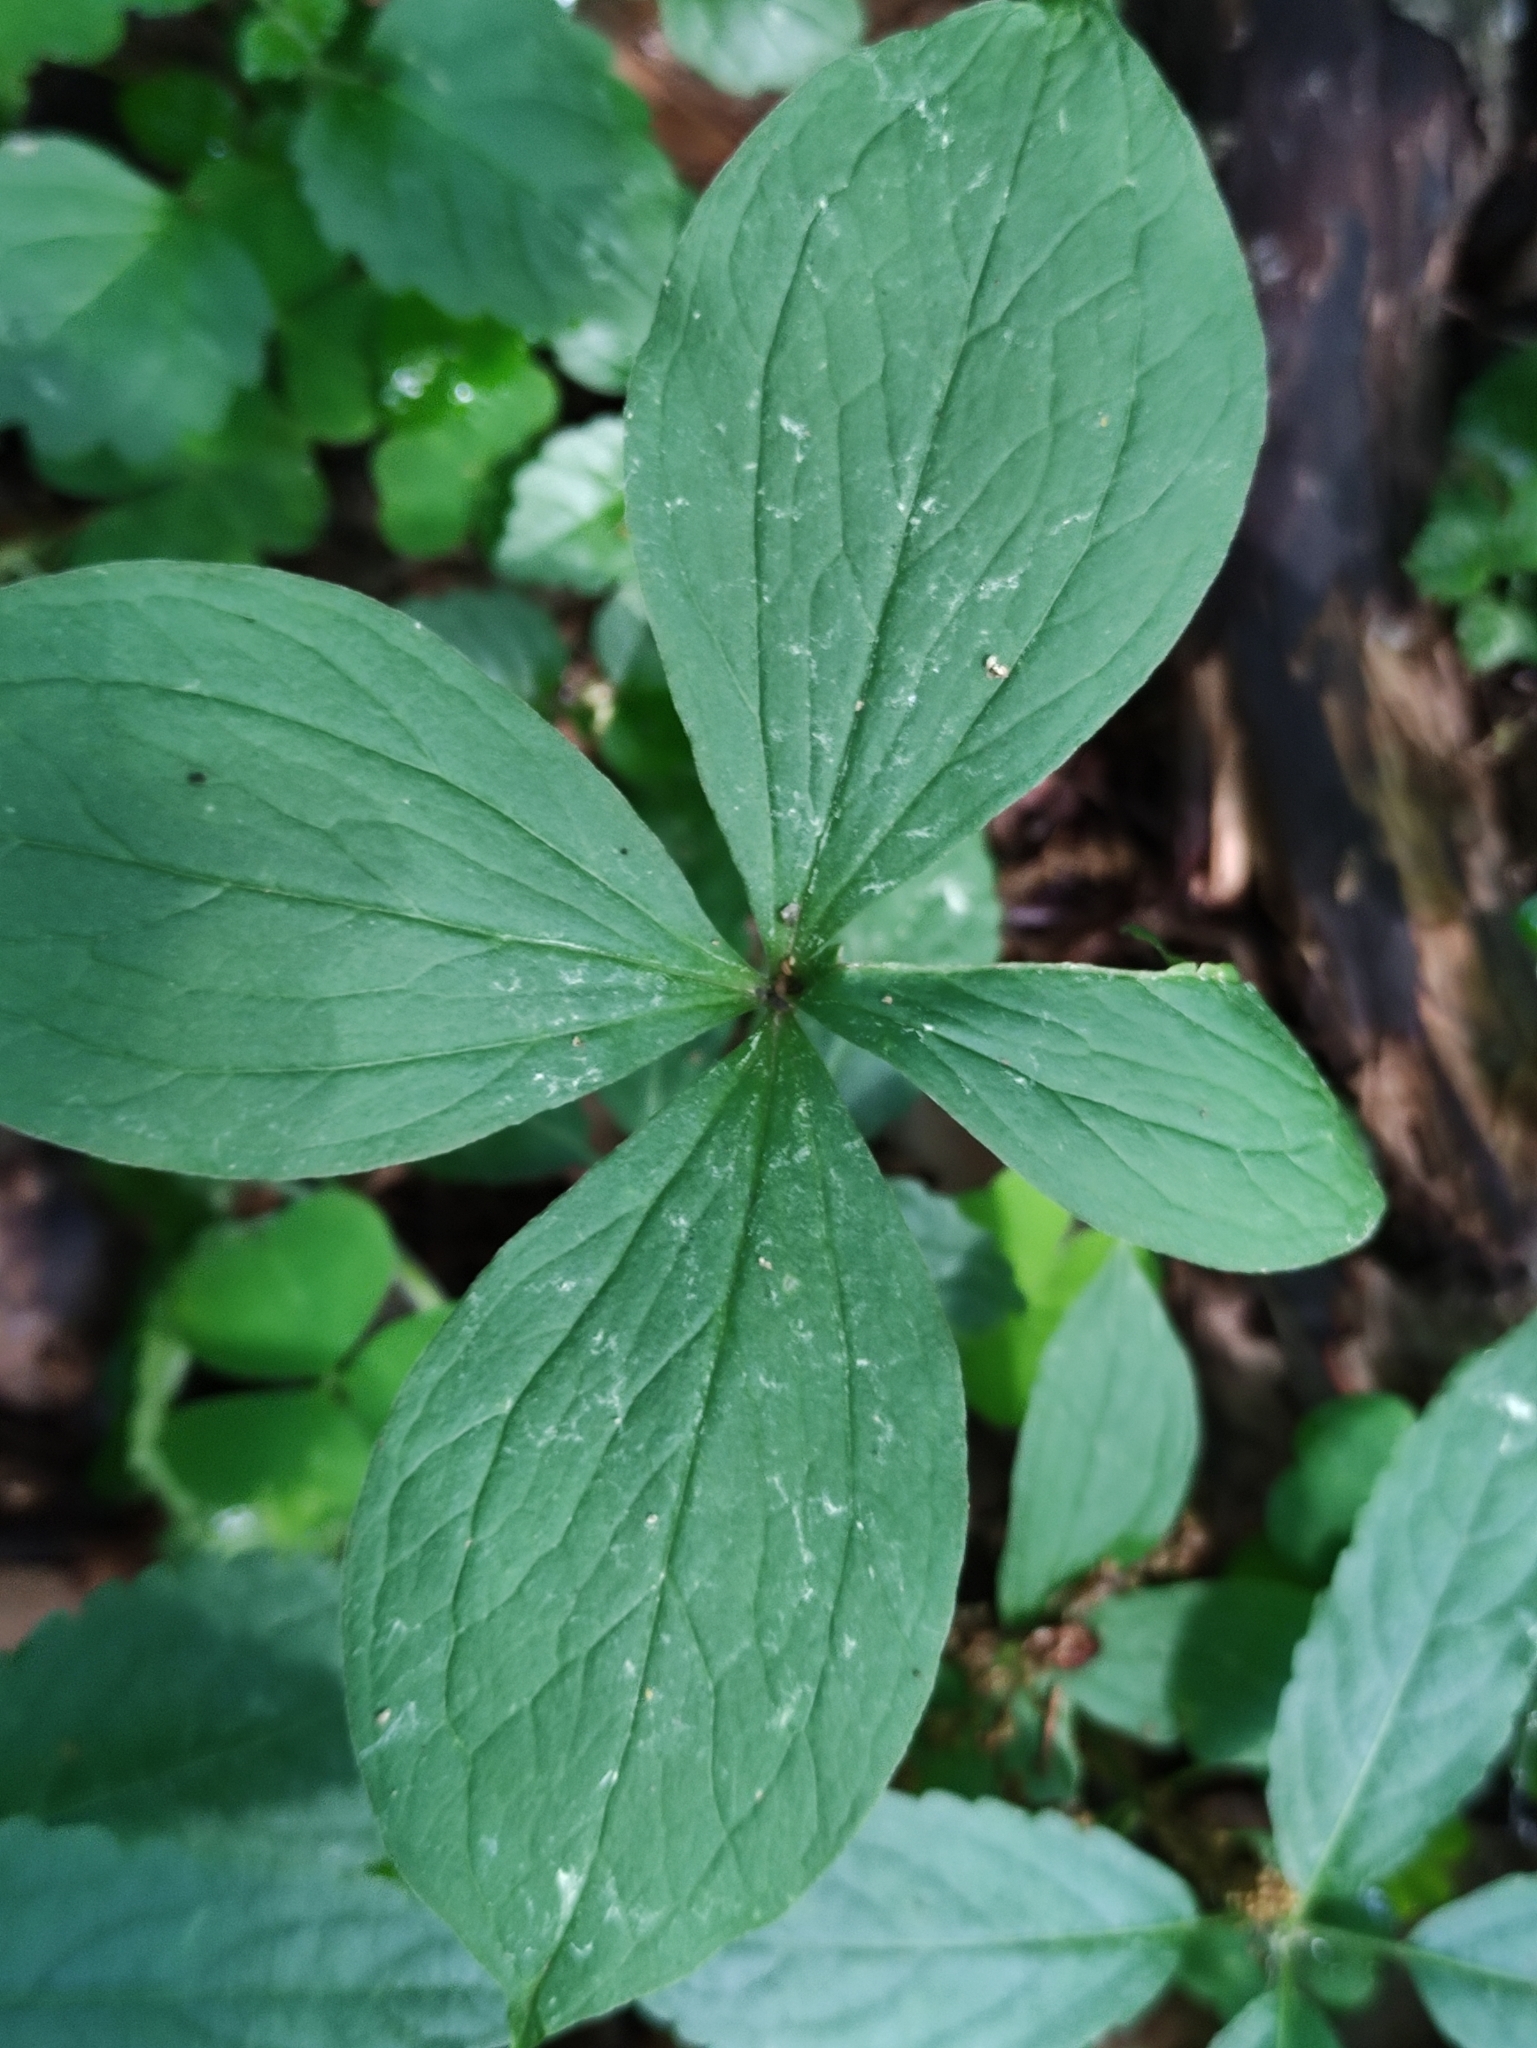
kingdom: Plantae
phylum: Tracheophyta
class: Liliopsida
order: Liliales
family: Melanthiaceae
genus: Paris
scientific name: Paris quadrifolia
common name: Herb-paris
